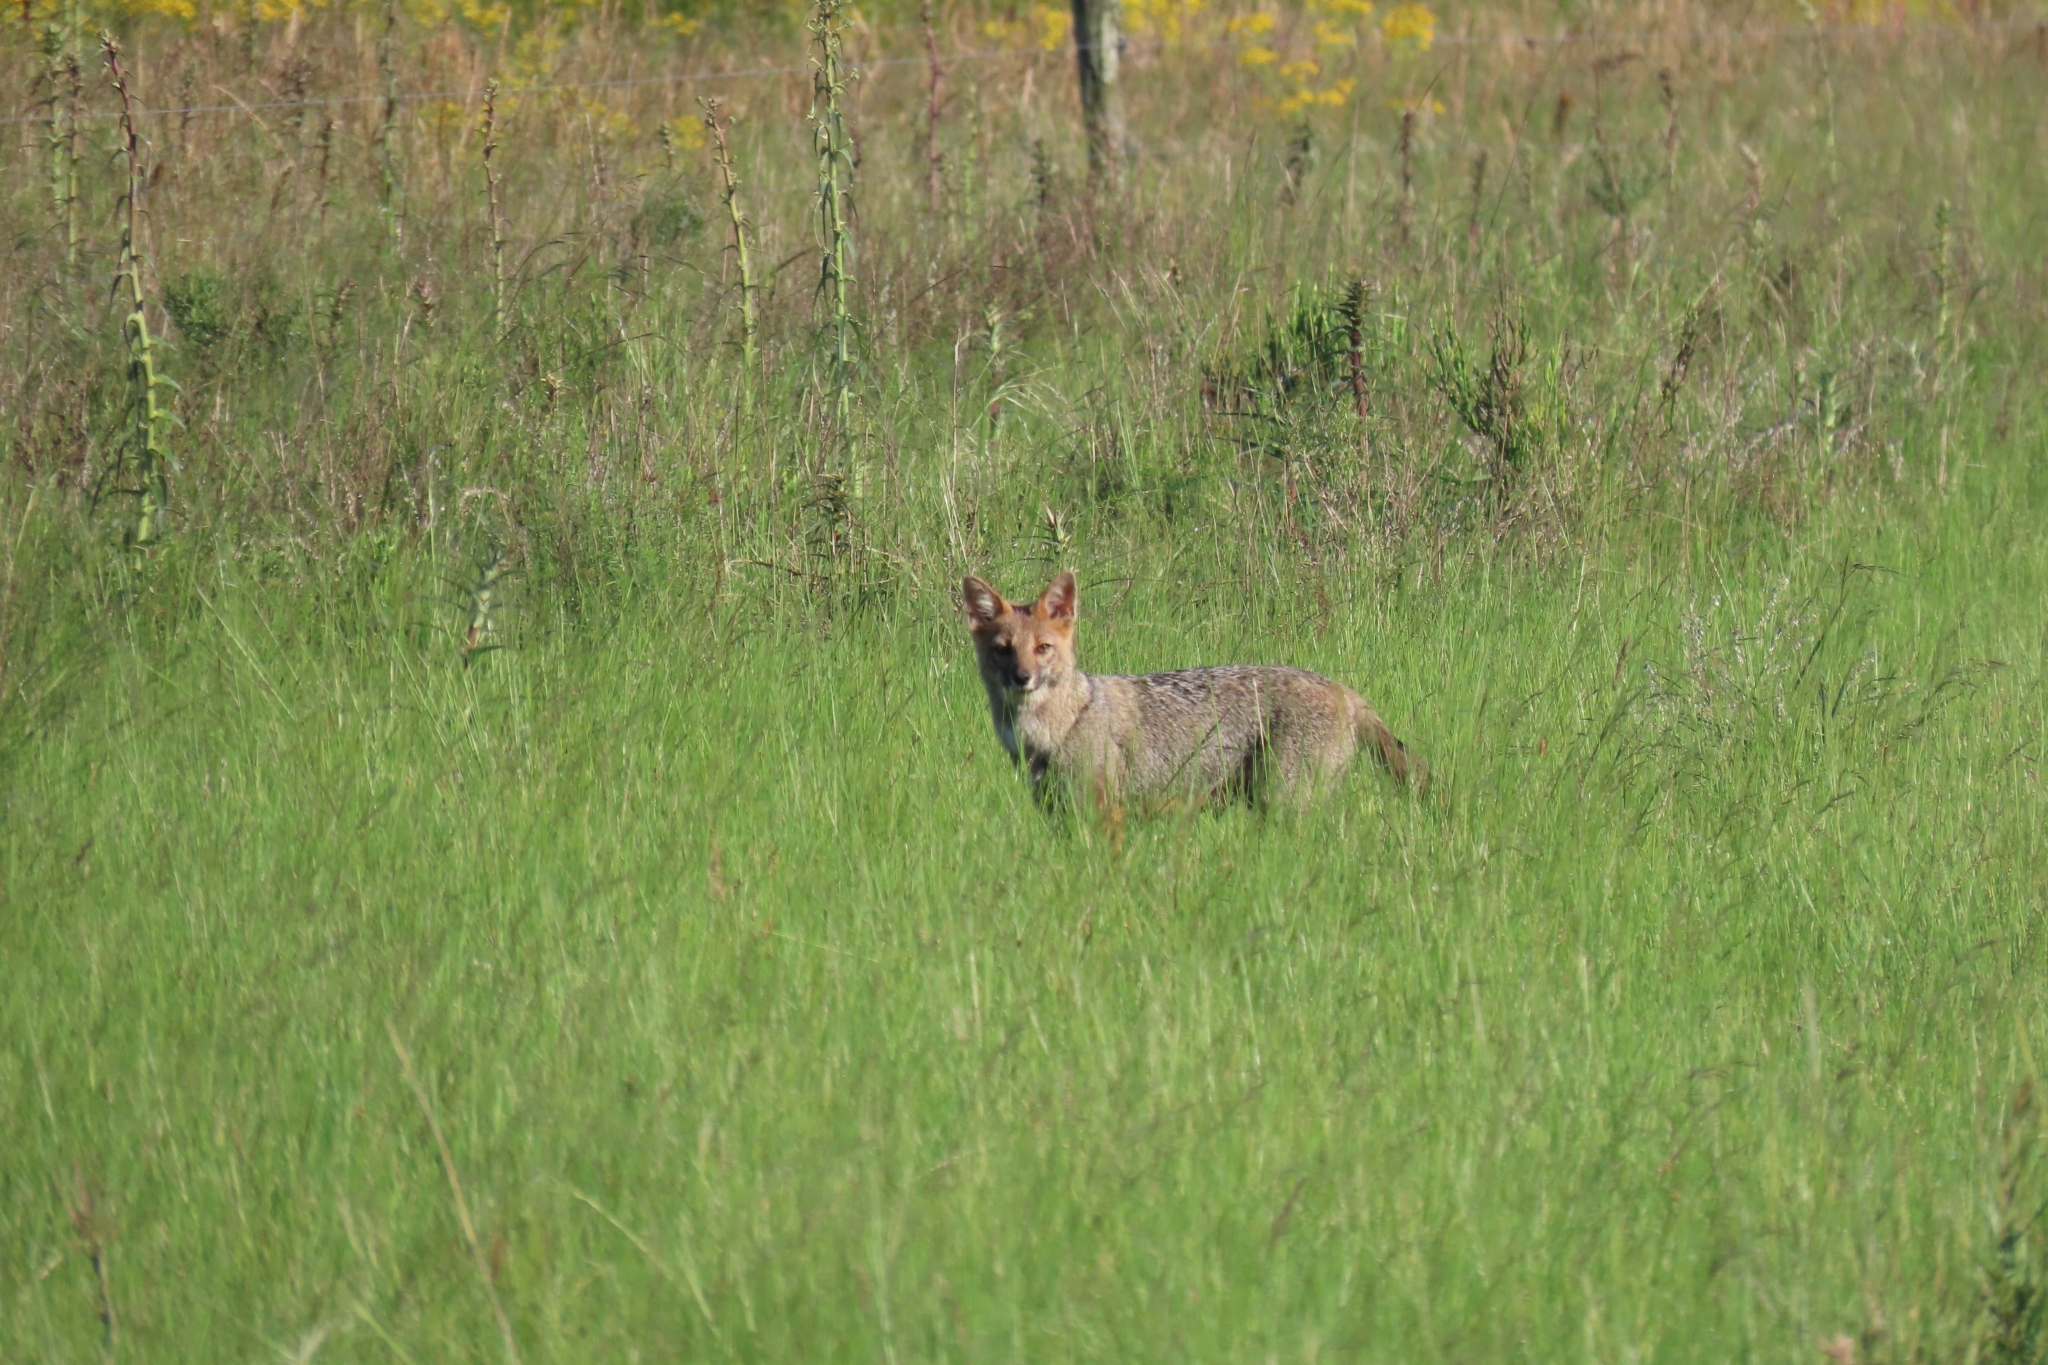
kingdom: Animalia
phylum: Chordata
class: Mammalia
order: Carnivora
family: Canidae
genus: Lycalopex
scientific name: Lycalopex gymnocercus
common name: Pampas fox
